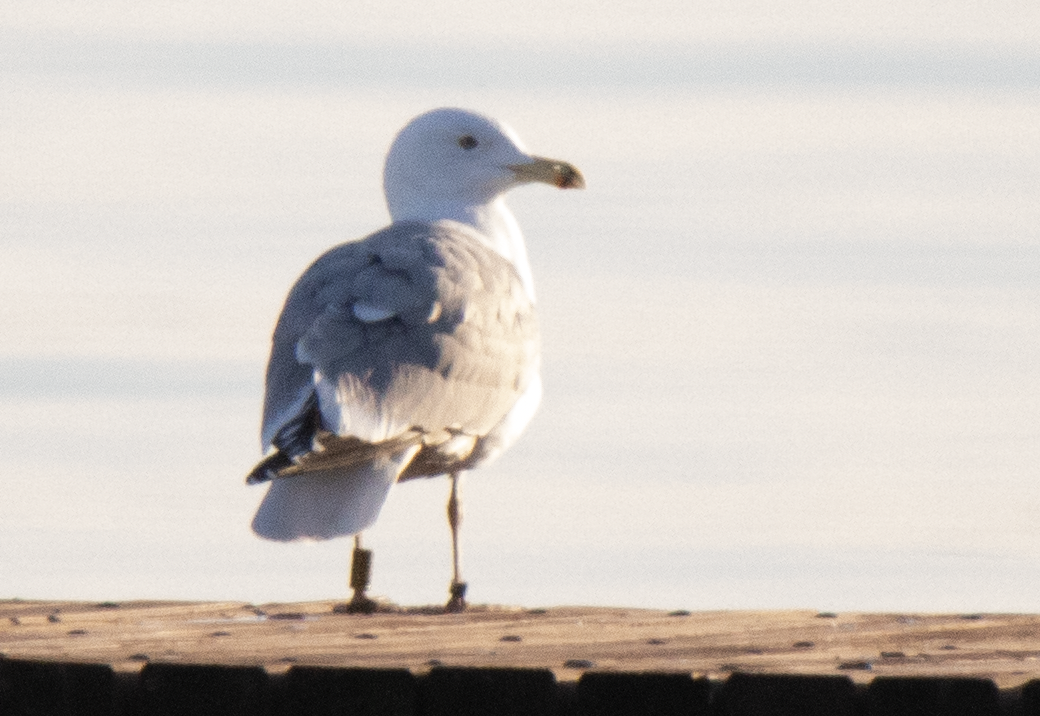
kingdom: Animalia
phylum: Chordata
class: Aves
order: Charadriiformes
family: Laridae
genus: Larus
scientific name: Larus cachinnans
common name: Caspian gull
